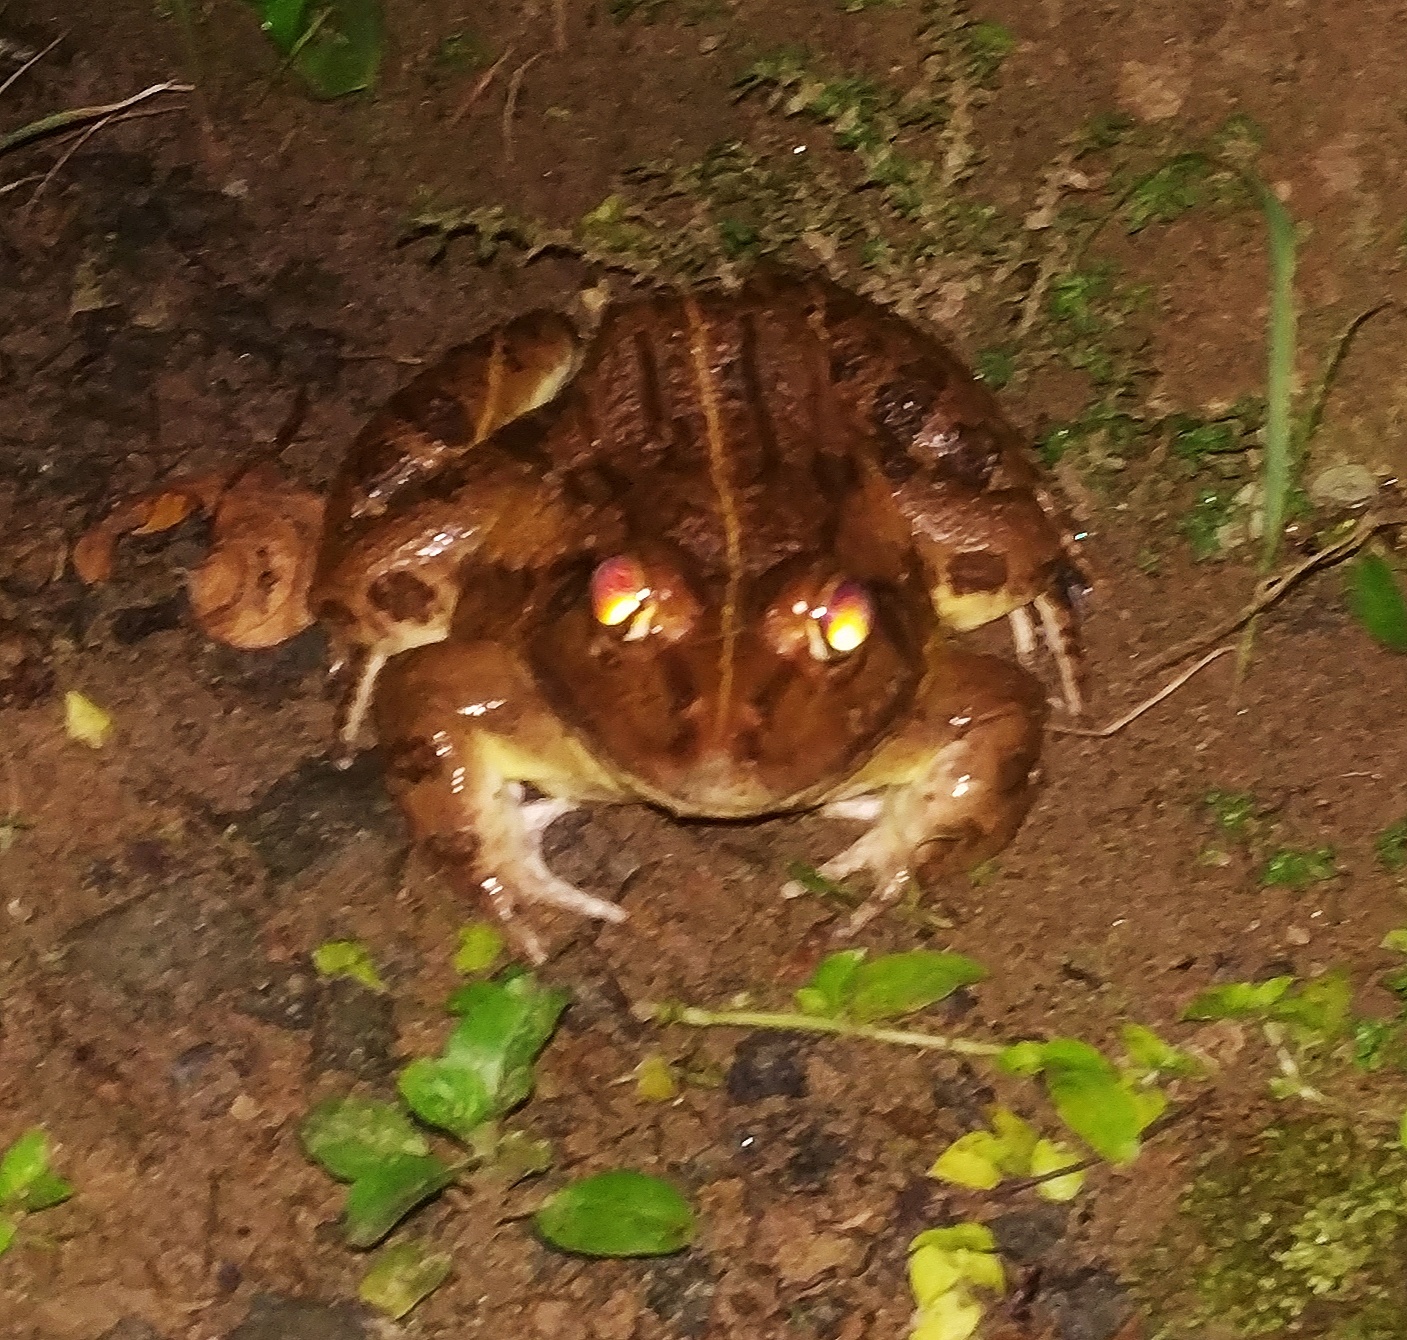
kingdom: Animalia
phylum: Chordata
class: Amphibia
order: Anura
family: Dicroglossidae
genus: Hoplobatrachus
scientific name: Hoplobatrachus tigerinus
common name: Indian bullfrog
